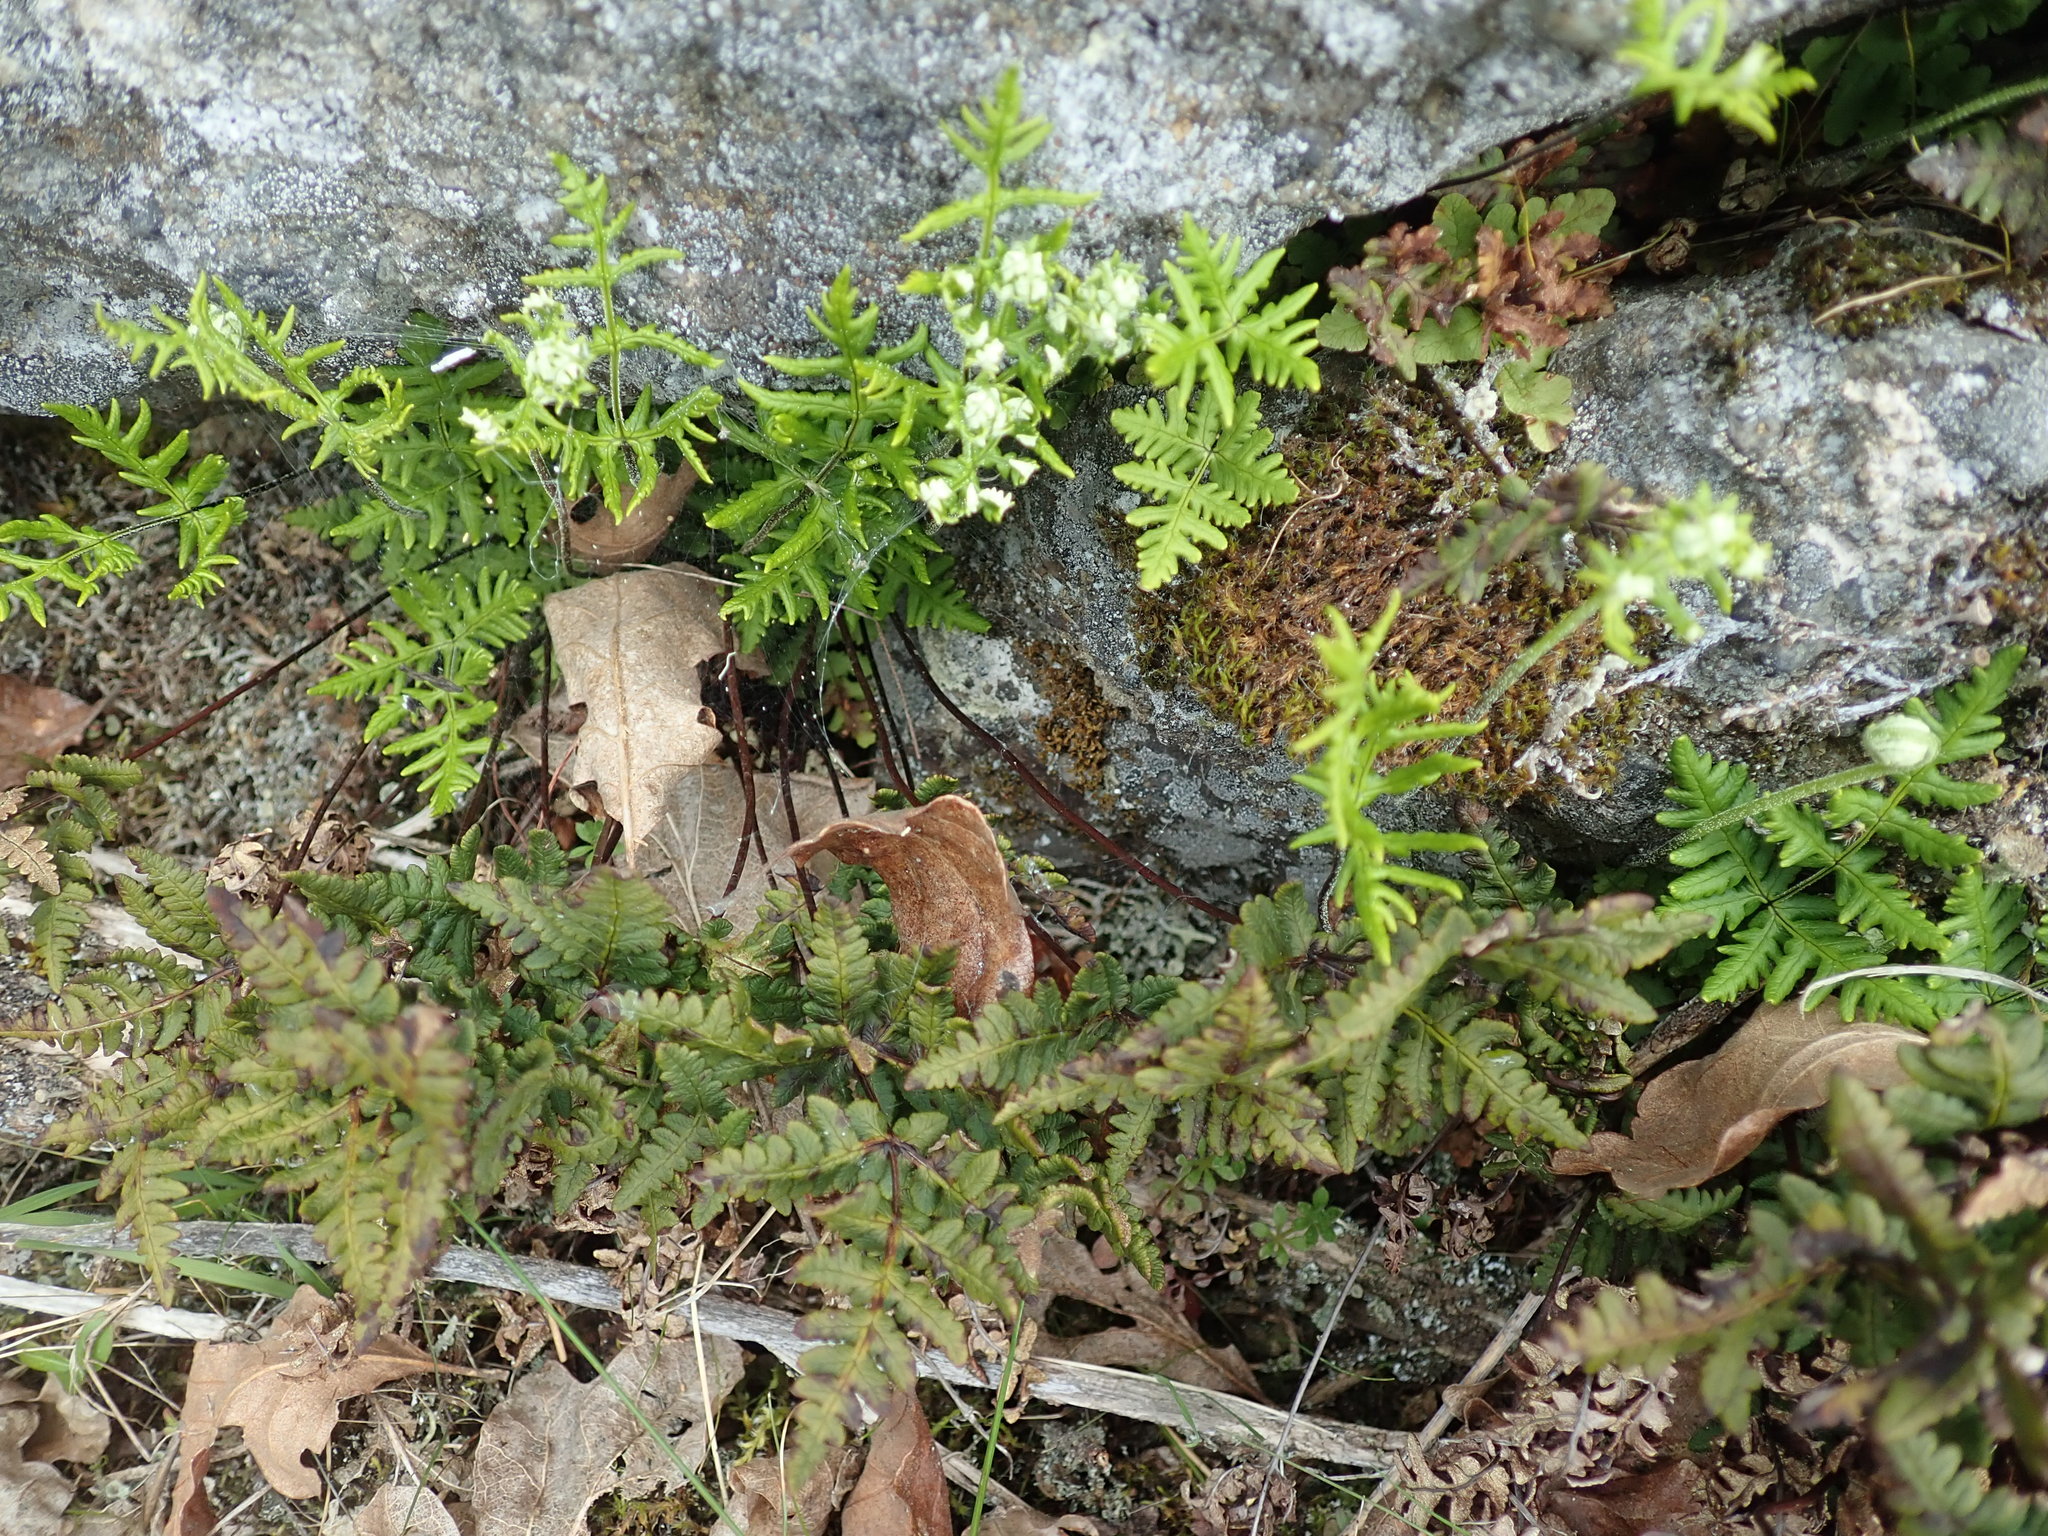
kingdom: Plantae
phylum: Tracheophyta
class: Polypodiopsida
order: Polypodiales
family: Pteridaceae
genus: Pentagramma
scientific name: Pentagramma triangularis
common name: Gold fern
